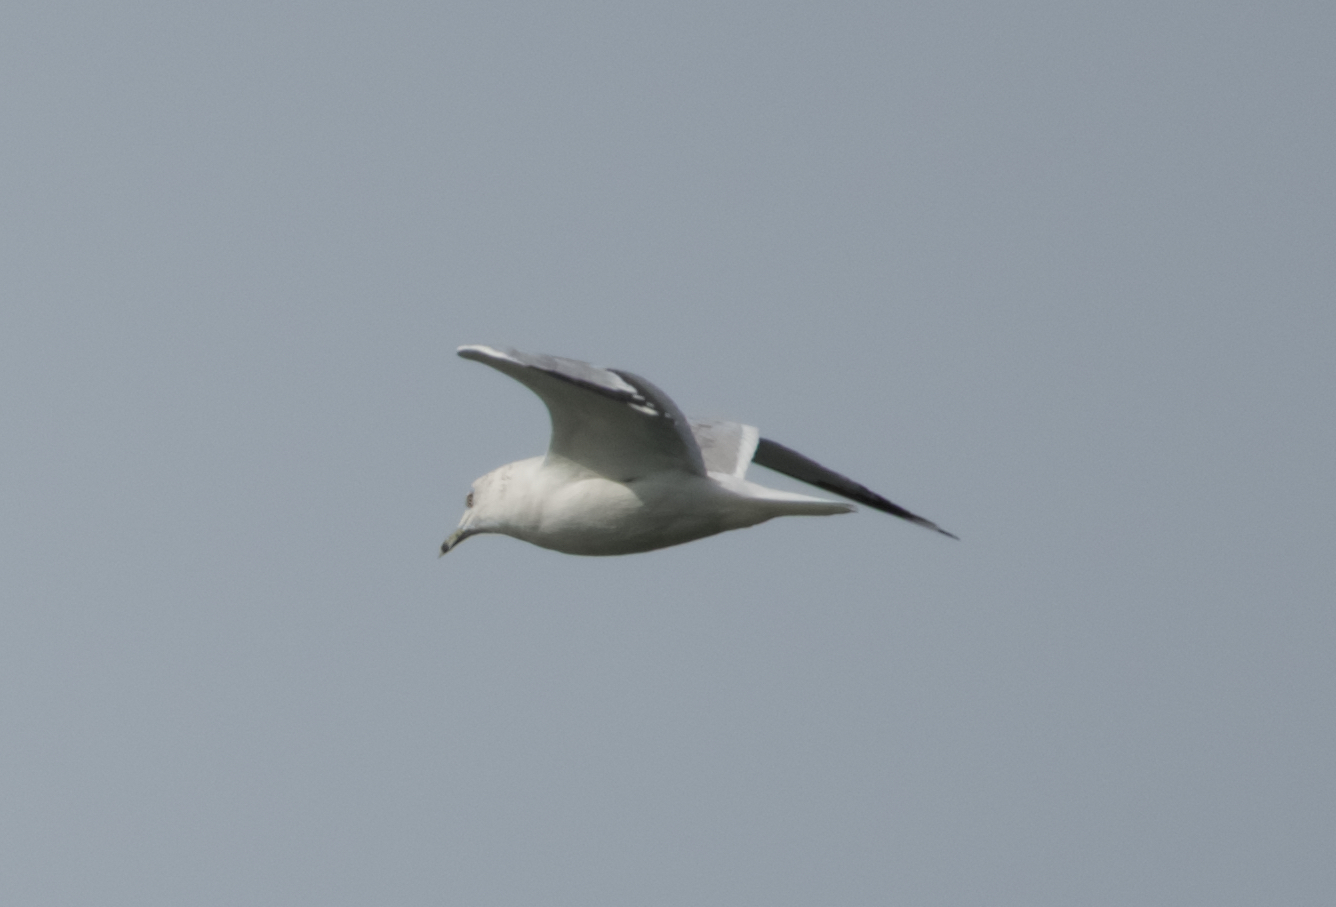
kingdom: Animalia
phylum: Chordata
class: Aves
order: Charadriiformes
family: Laridae
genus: Larus
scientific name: Larus delawarensis
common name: Ring-billed gull
